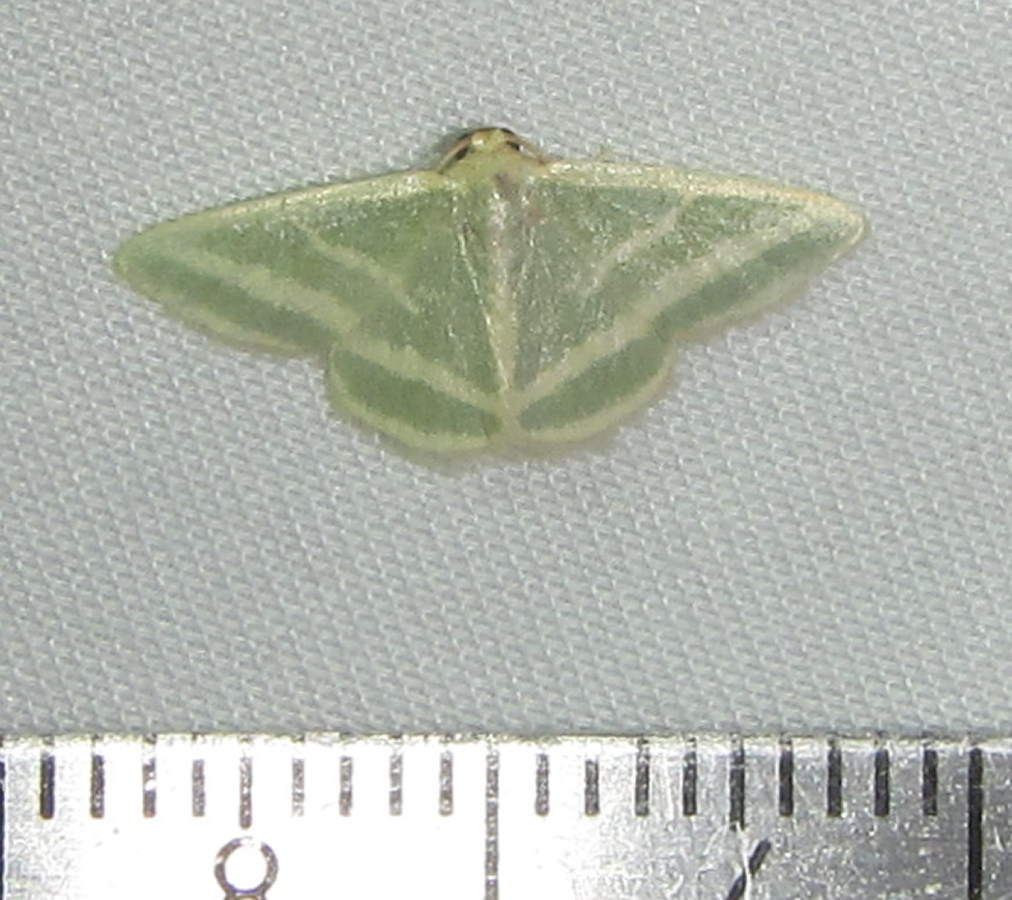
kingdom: Animalia
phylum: Arthropoda
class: Insecta
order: Lepidoptera
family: Geometridae
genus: Mixocera
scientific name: Mixocera frustratoria
